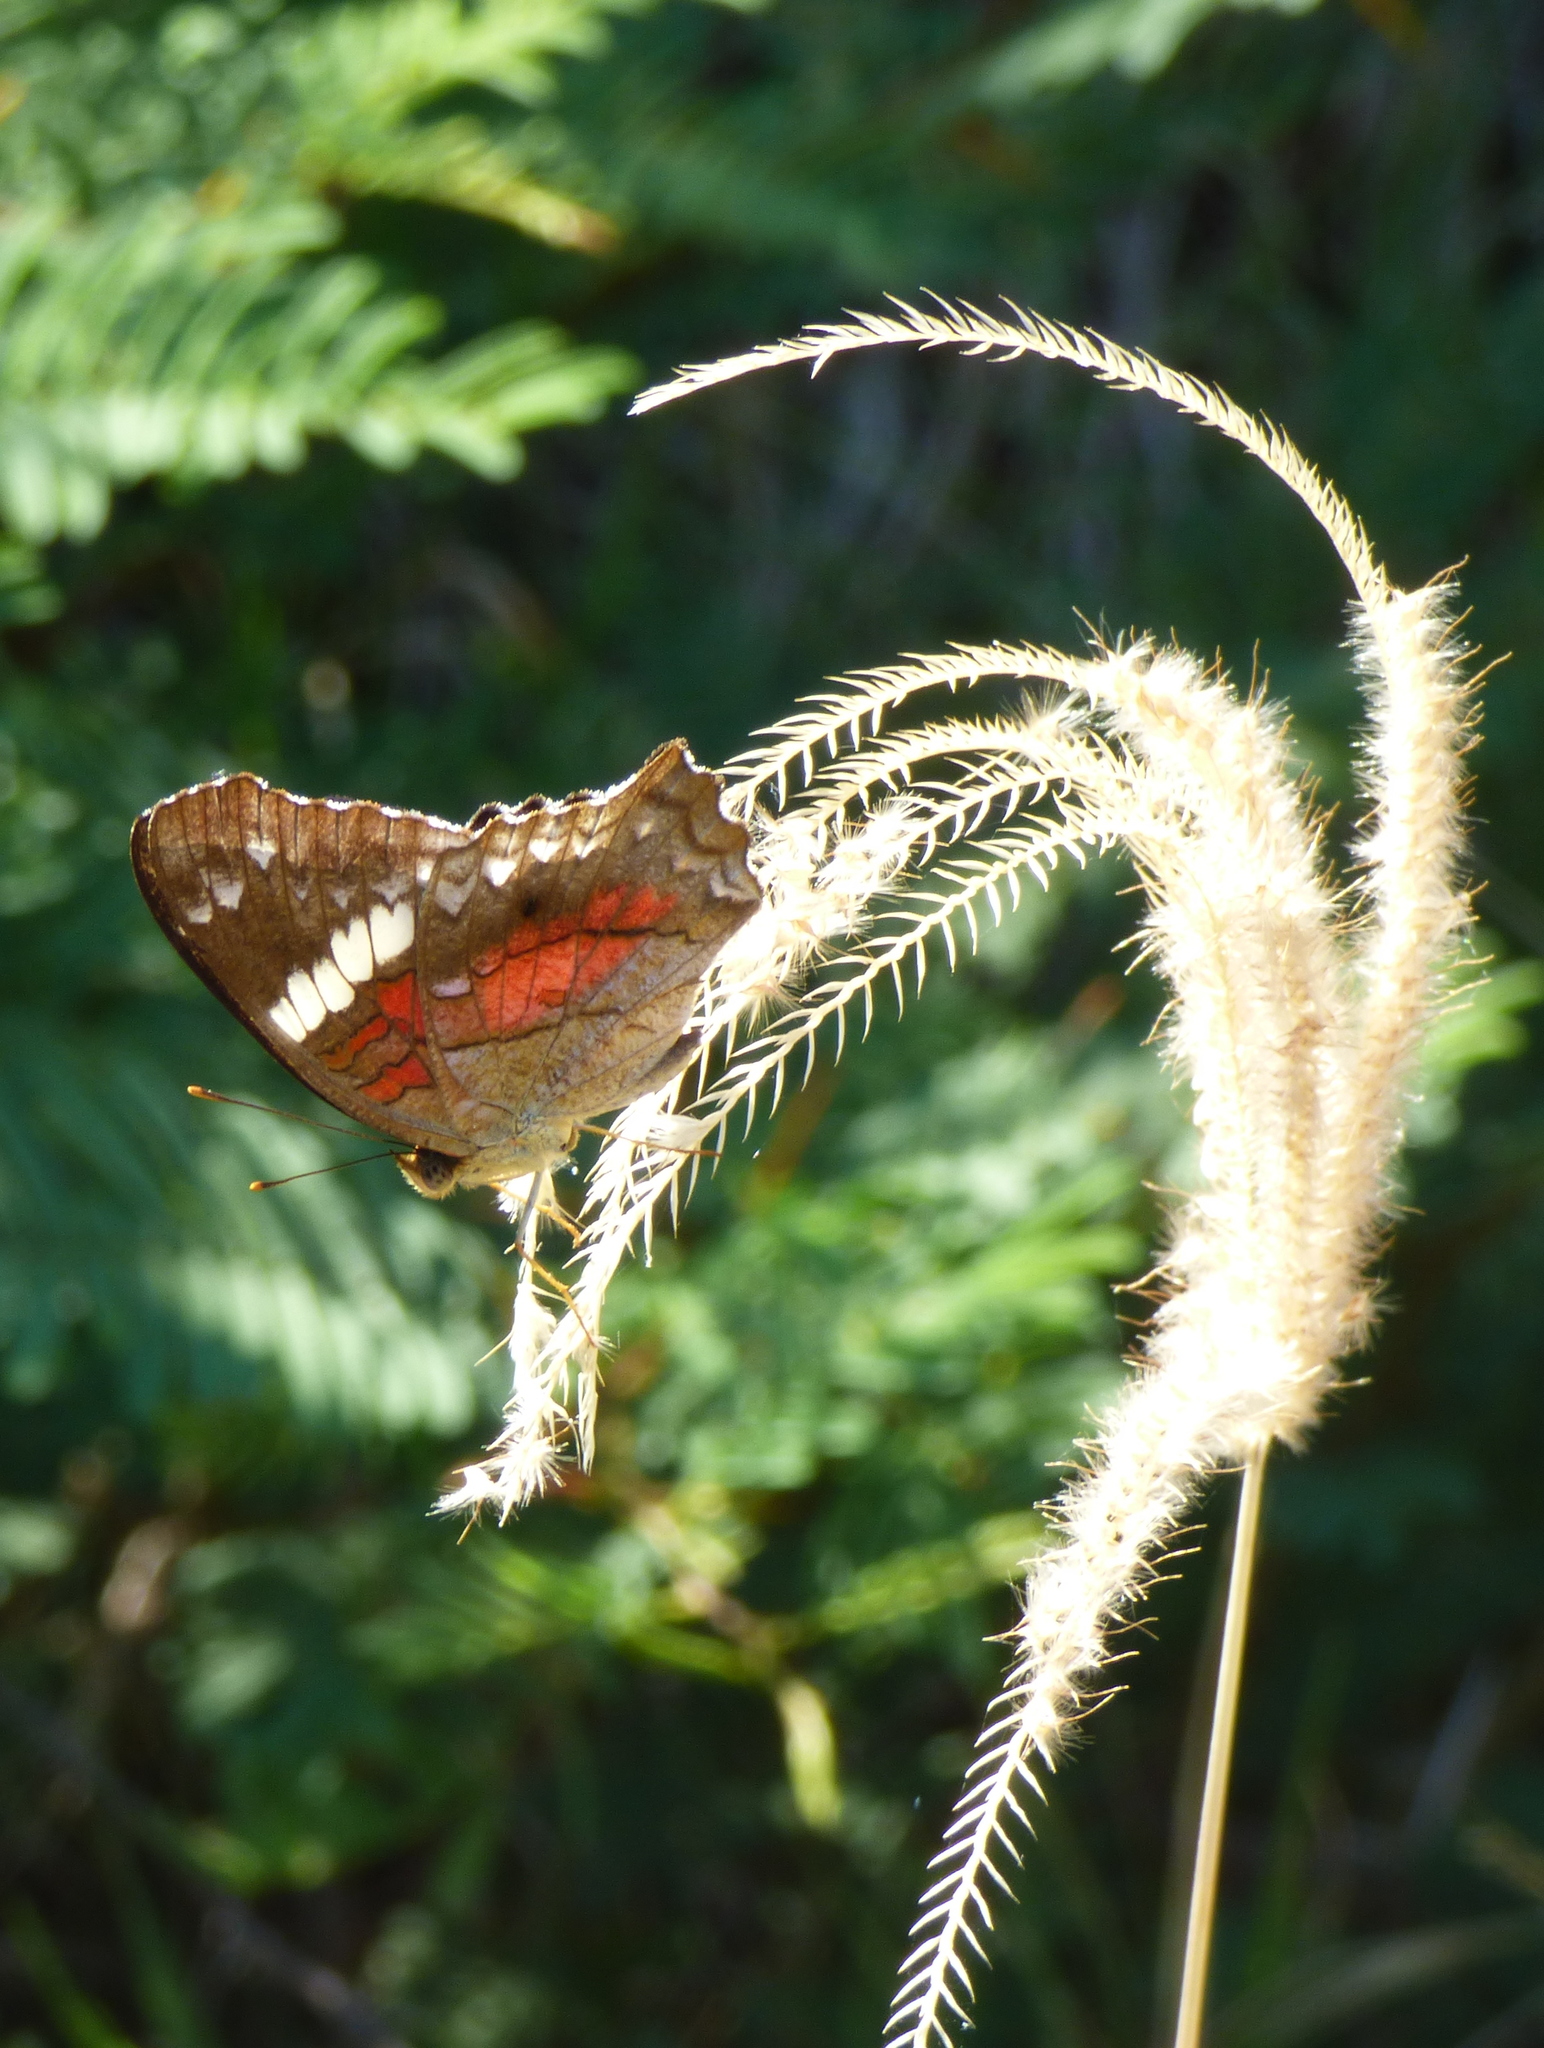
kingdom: Animalia
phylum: Arthropoda
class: Insecta
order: Lepidoptera
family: Nymphalidae
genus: Anartia
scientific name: Anartia amathea
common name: Red peacock
